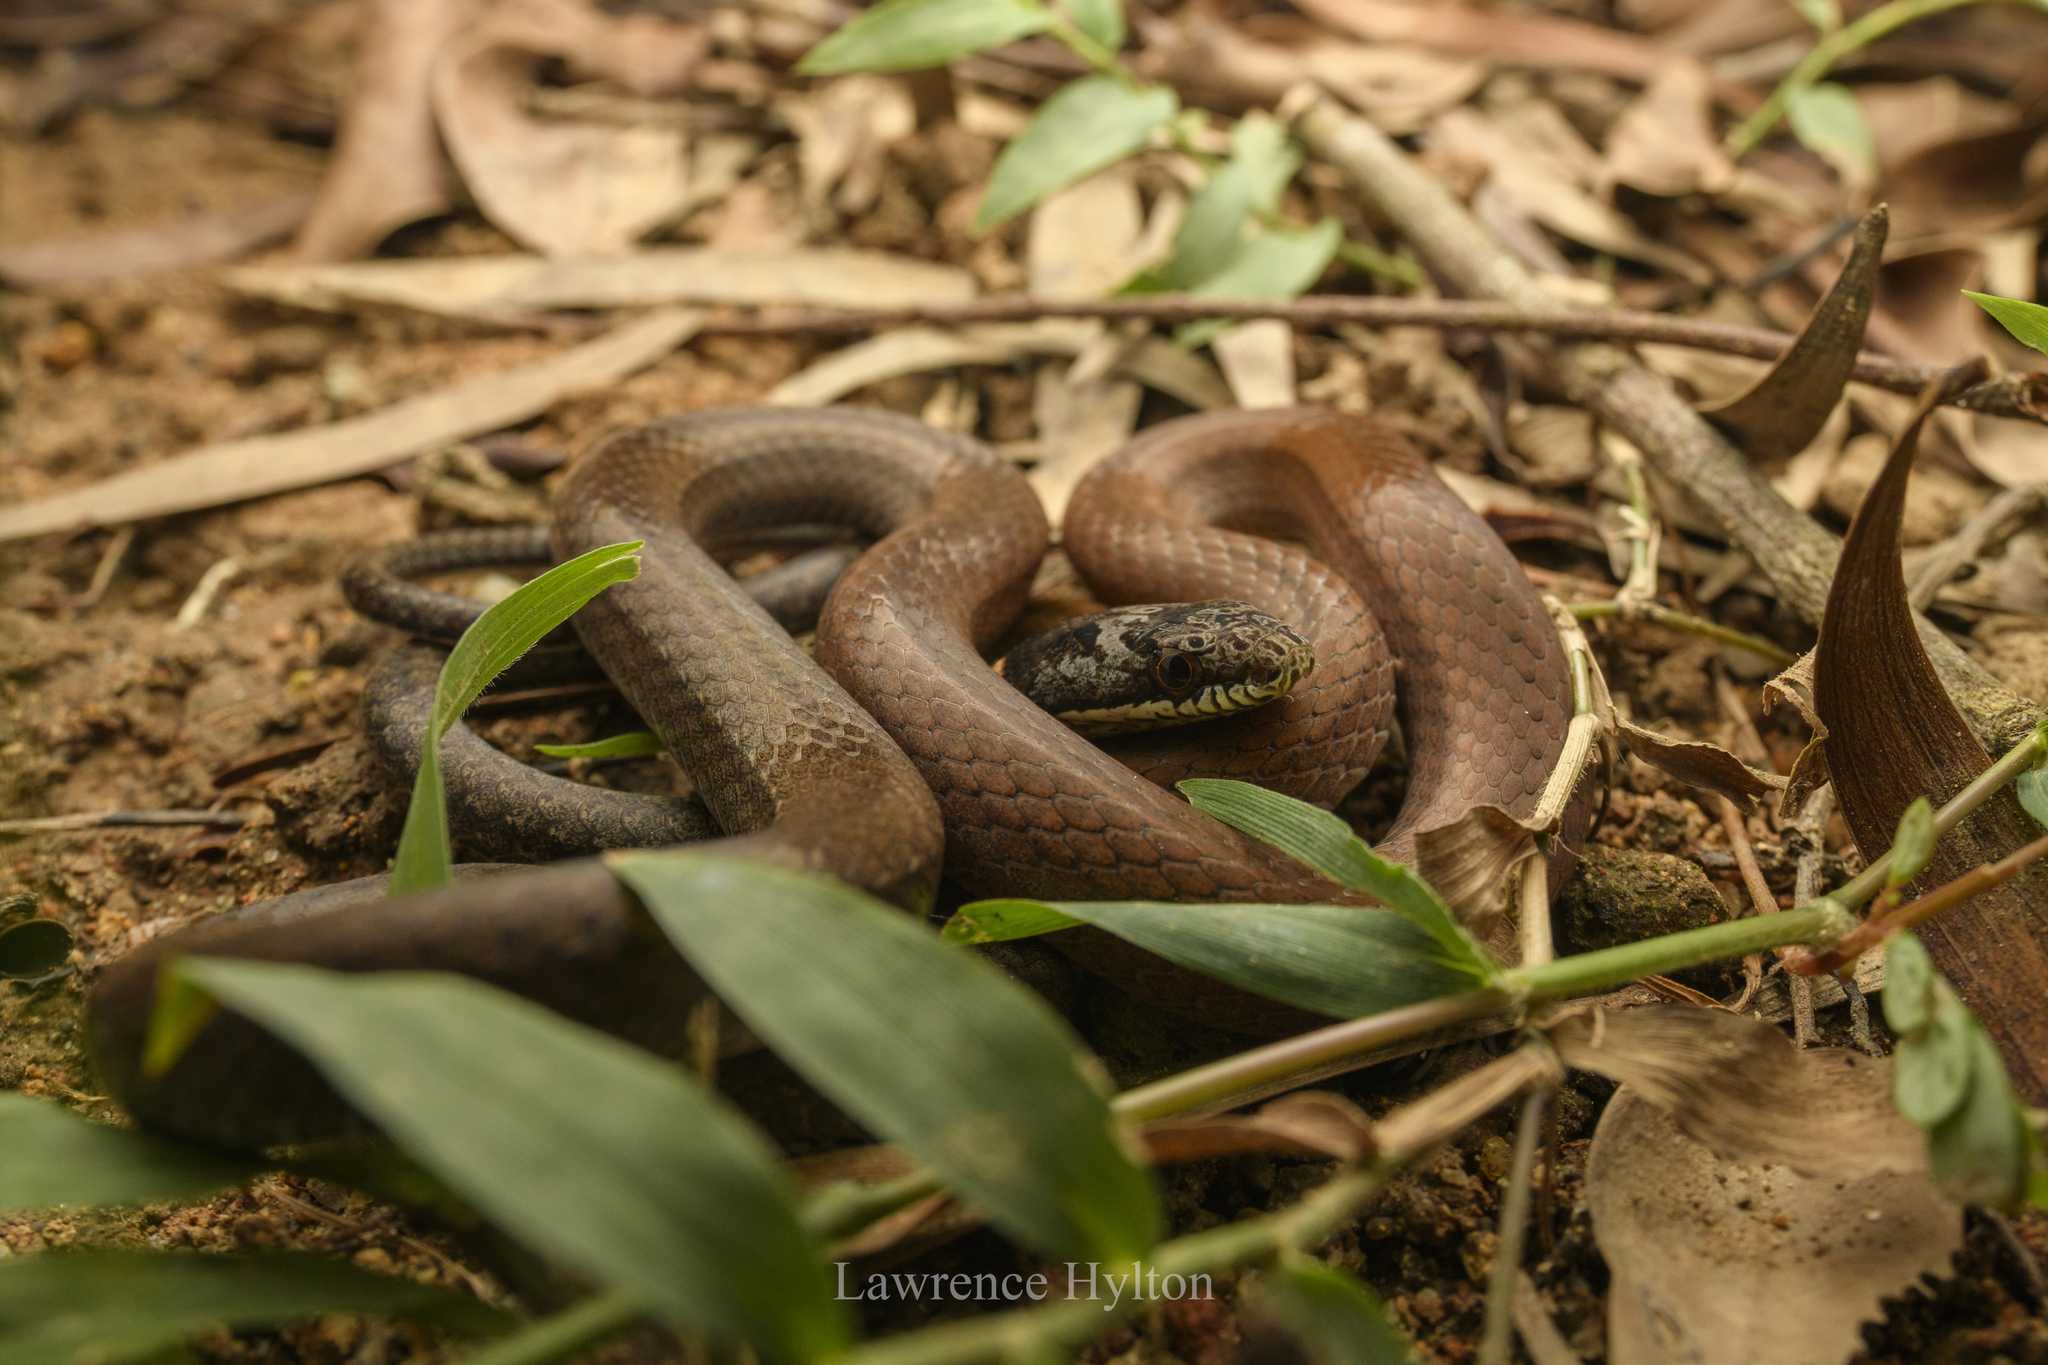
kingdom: Animalia
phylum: Chordata
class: Squamata
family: Colubridae
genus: Sibynophis
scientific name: Sibynophis chinensis
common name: Chinese many-tooth snake
